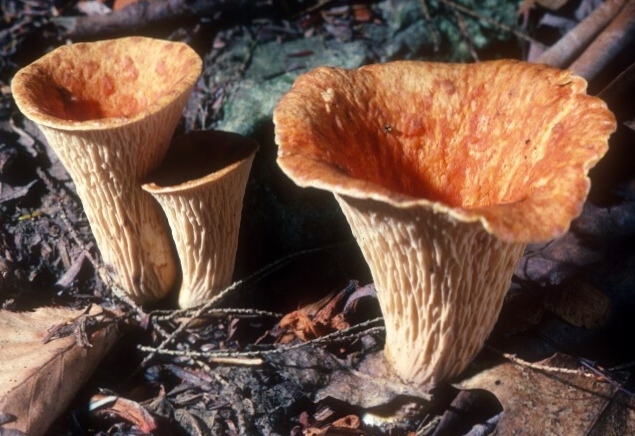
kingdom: Fungi
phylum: Basidiomycota
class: Agaricomycetes
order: Gomphales
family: Gomphaceae
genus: Turbinellus
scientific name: Turbinellus floccosus
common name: Scaly chanterelle
